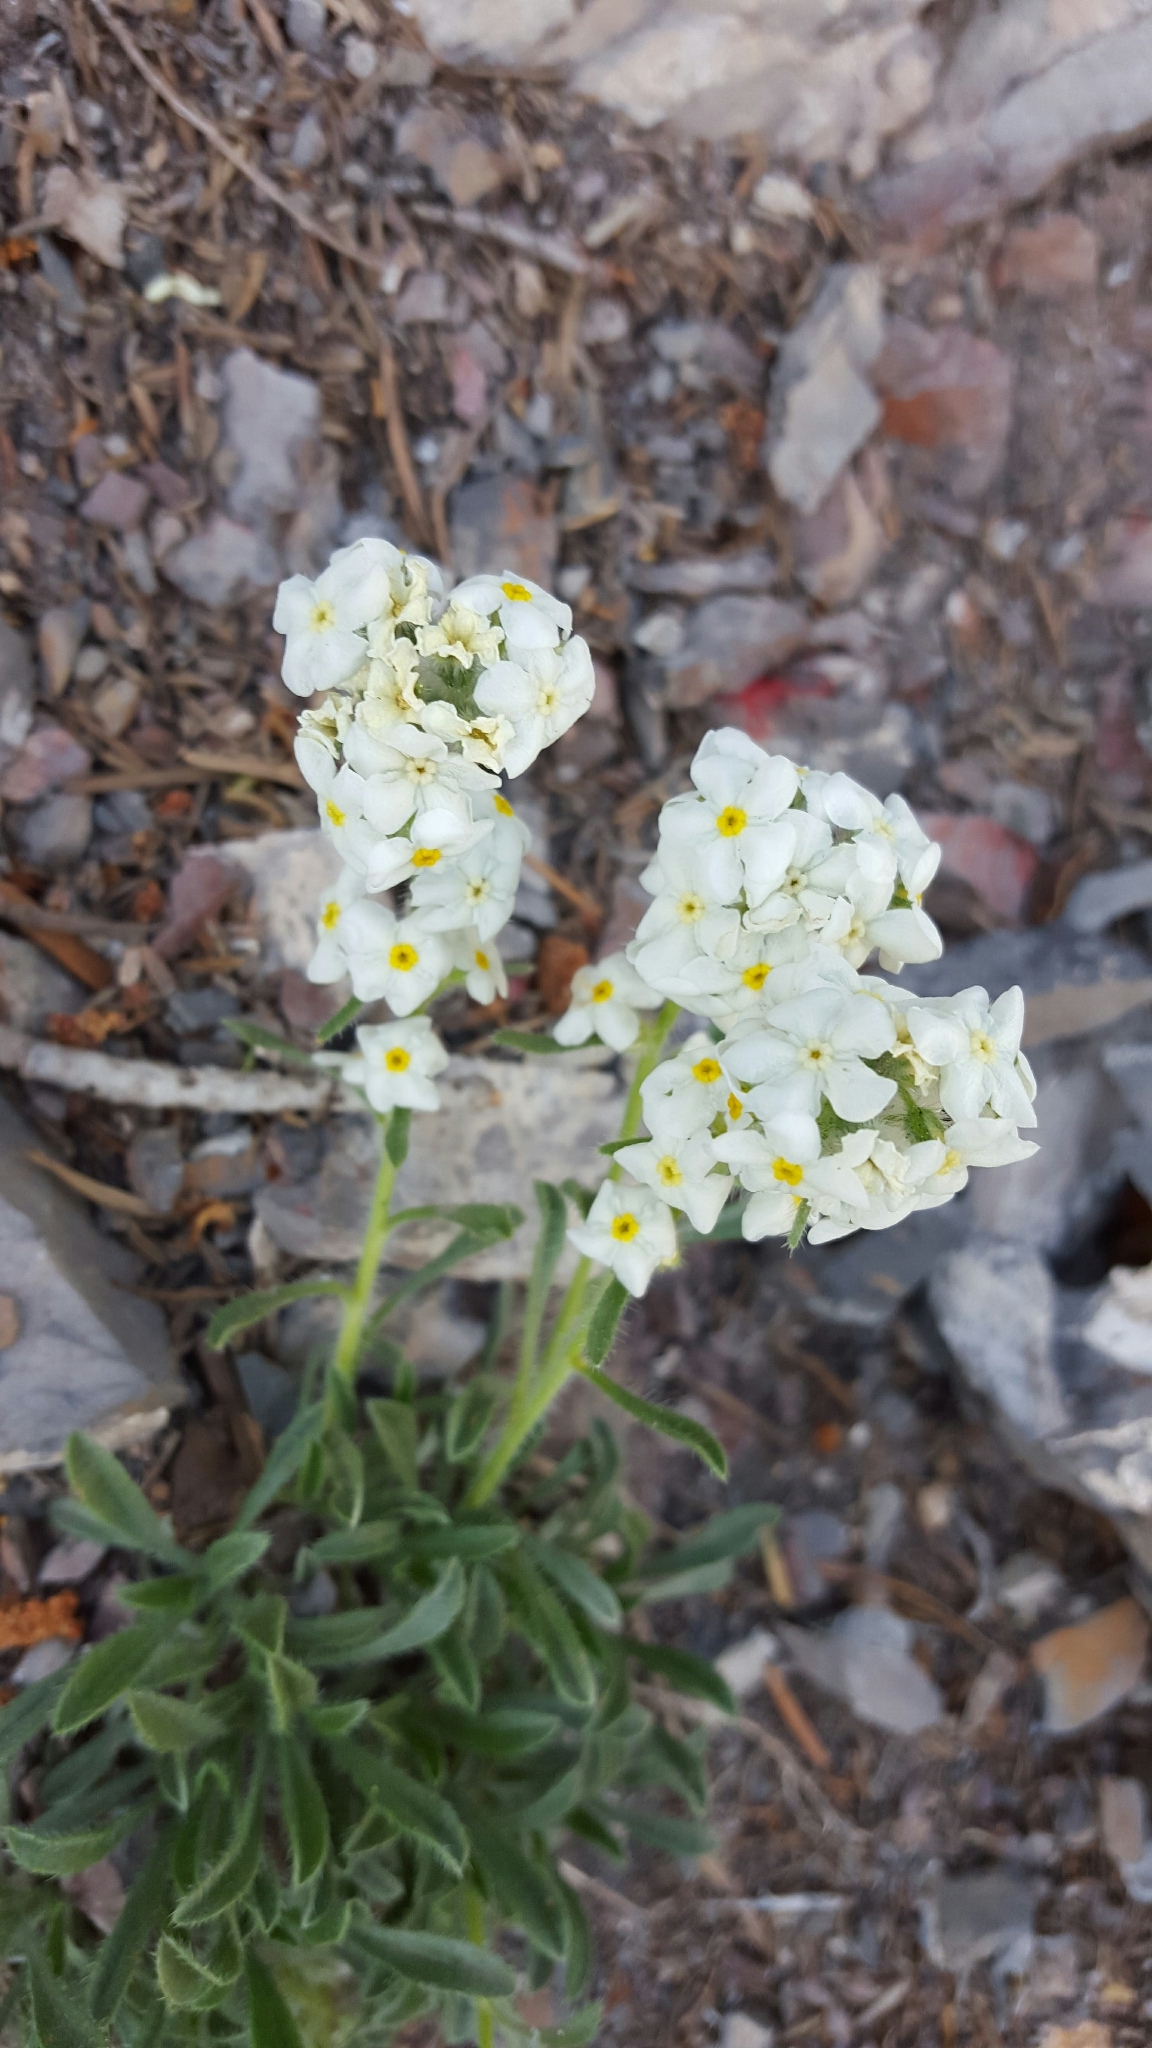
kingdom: Plantae
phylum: Tracheophyta
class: Magnoliopsida
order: Boraginales
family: Boraginaceae
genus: Oreocarya
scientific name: Oreocarya humilis
